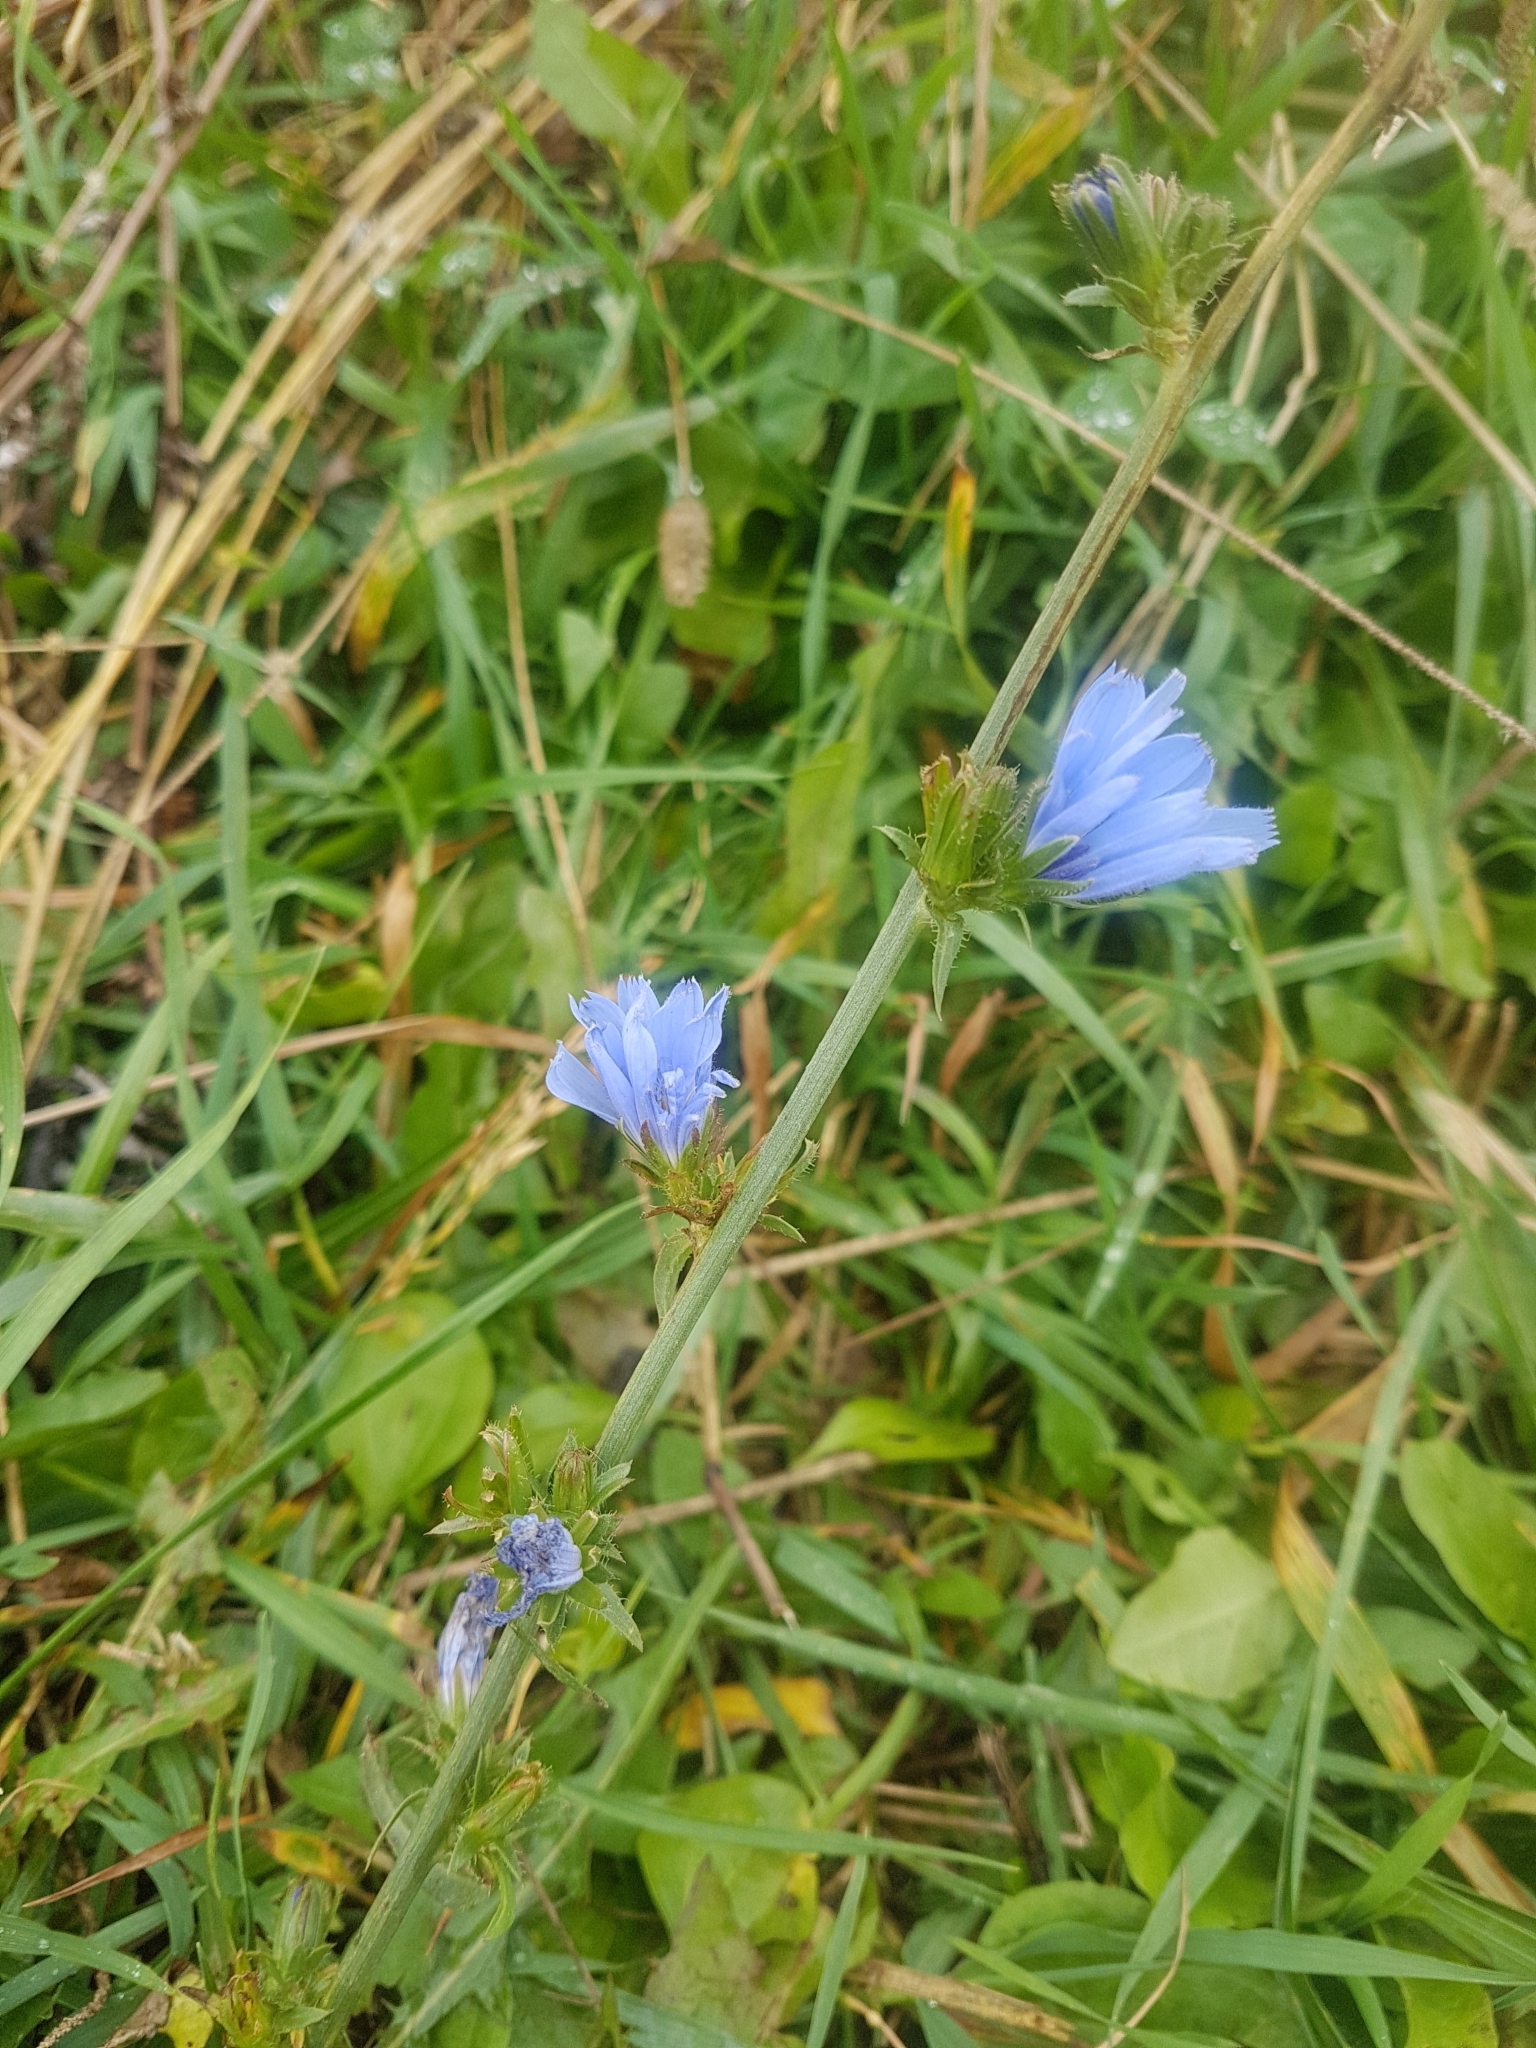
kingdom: Plantae
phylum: Tracheophyta
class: Magnoliopsida
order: Asterales
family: Asteraceae
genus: Cichorium
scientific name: Cichorium intybus
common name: Chicory
